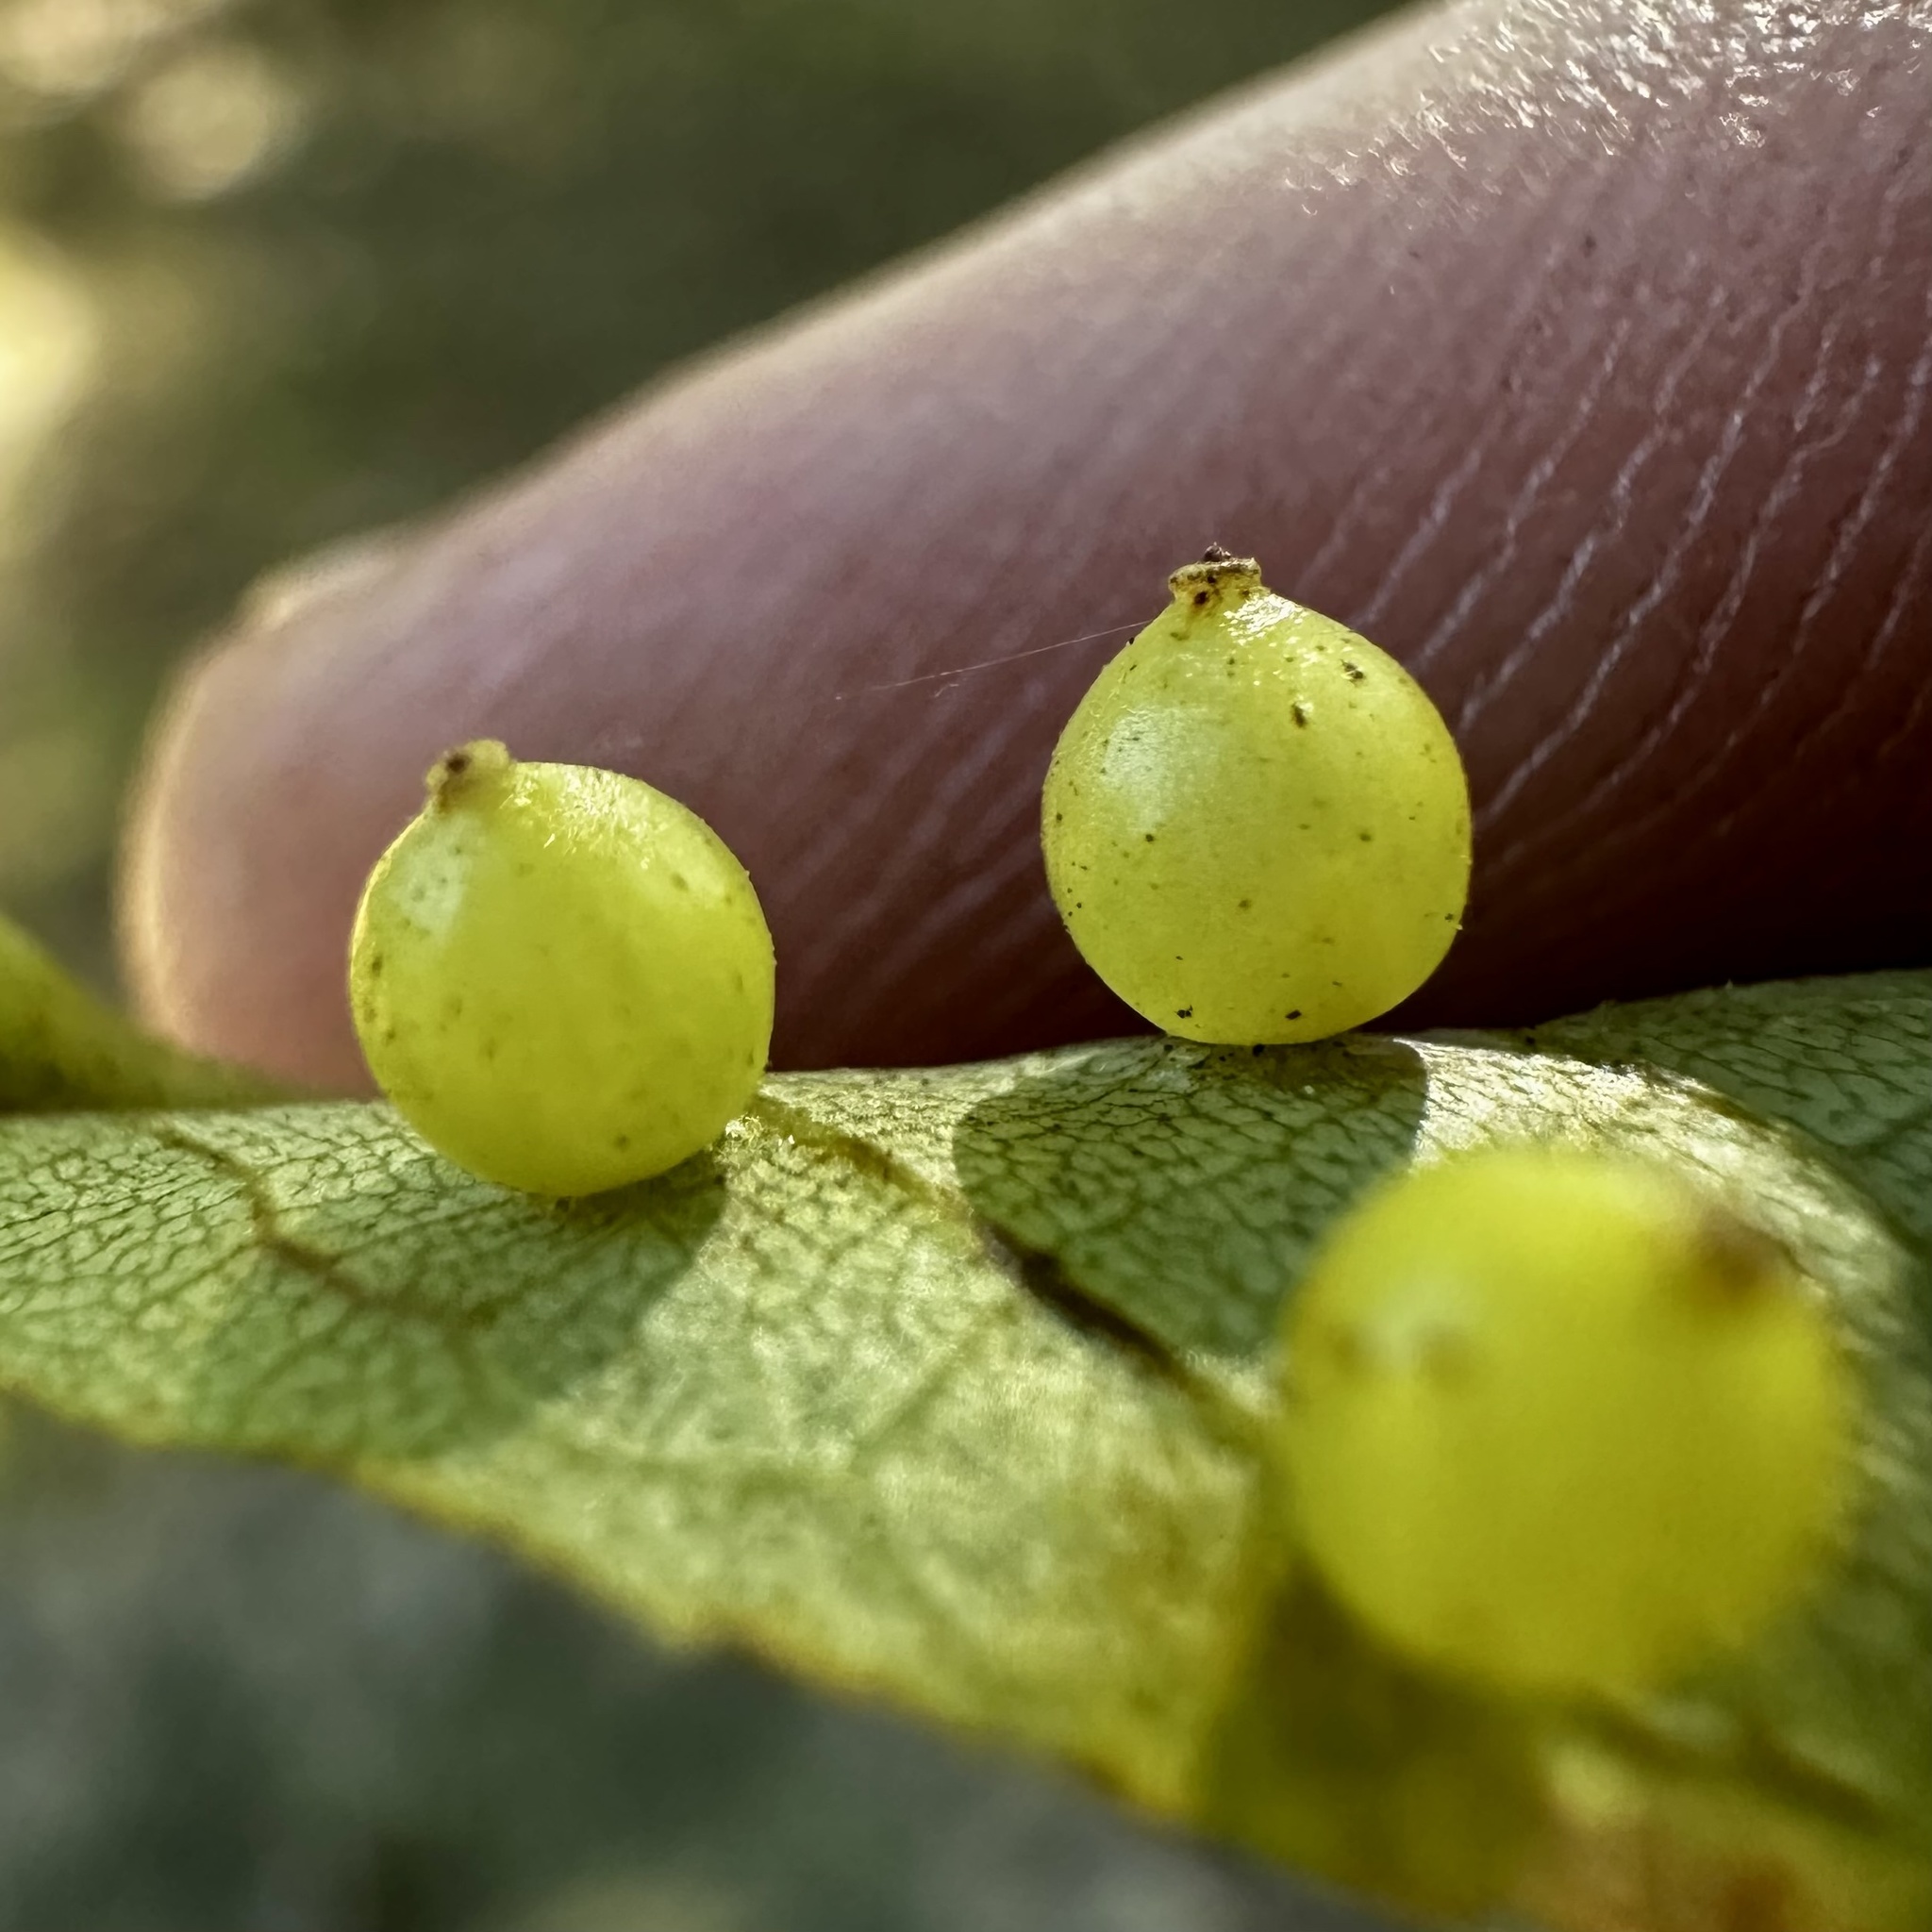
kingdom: Animalia
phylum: Arthropoda
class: Insecta
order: Diptera
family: Cecidomyiidae
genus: Caryomyia
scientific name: Caryomyia leviglobus
